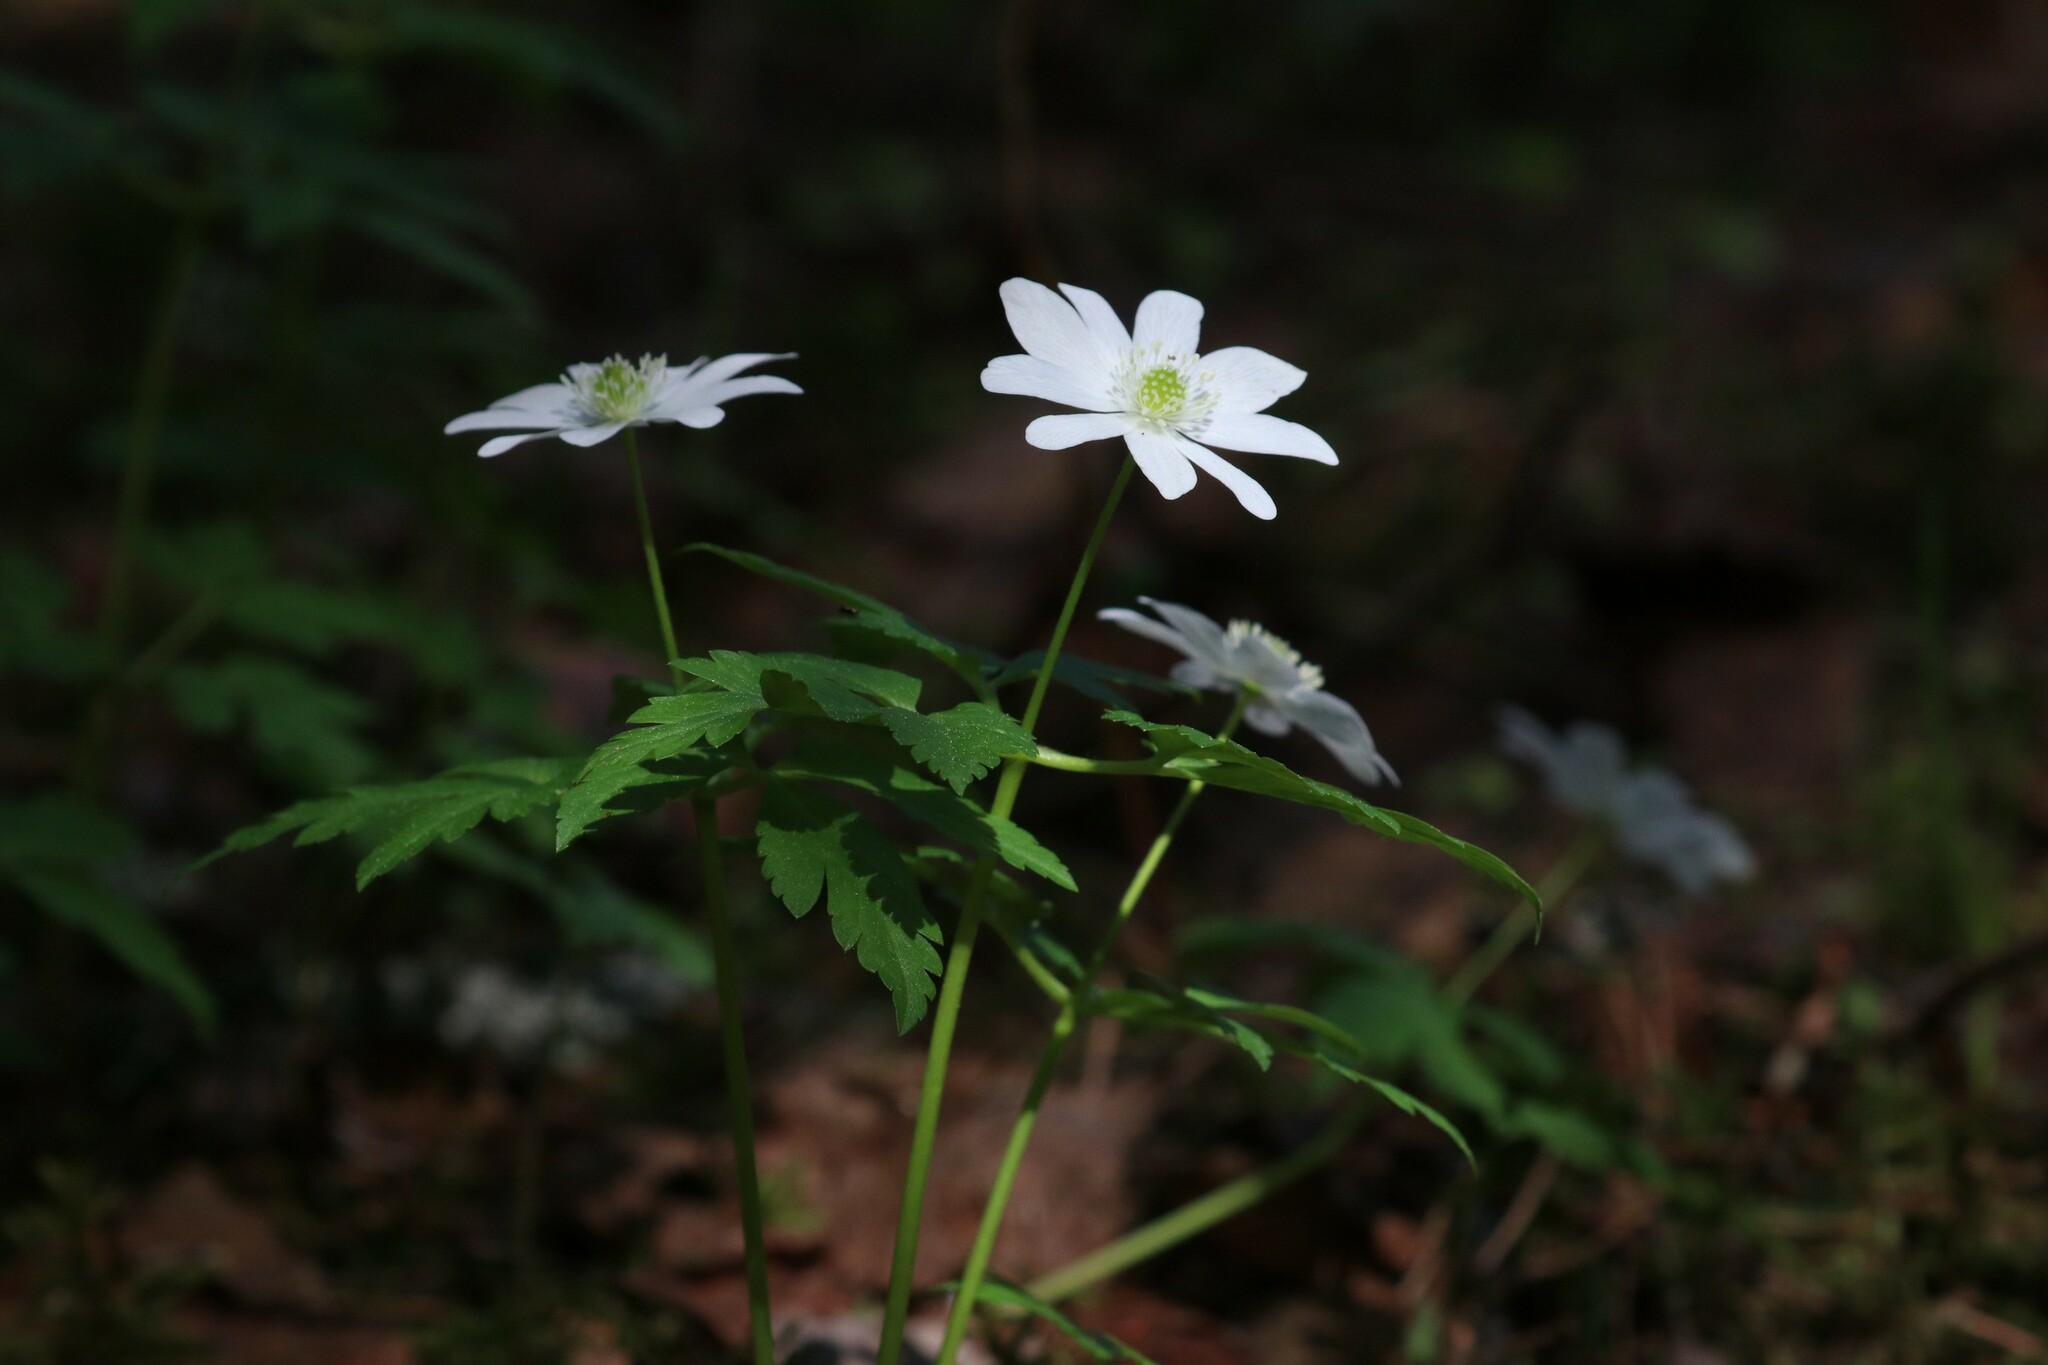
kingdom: Plantae
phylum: Tracheophyta
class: Magnoliopsida
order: Ranunculales
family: Ranunculaceae
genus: Anemone
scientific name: Anemone altaica
